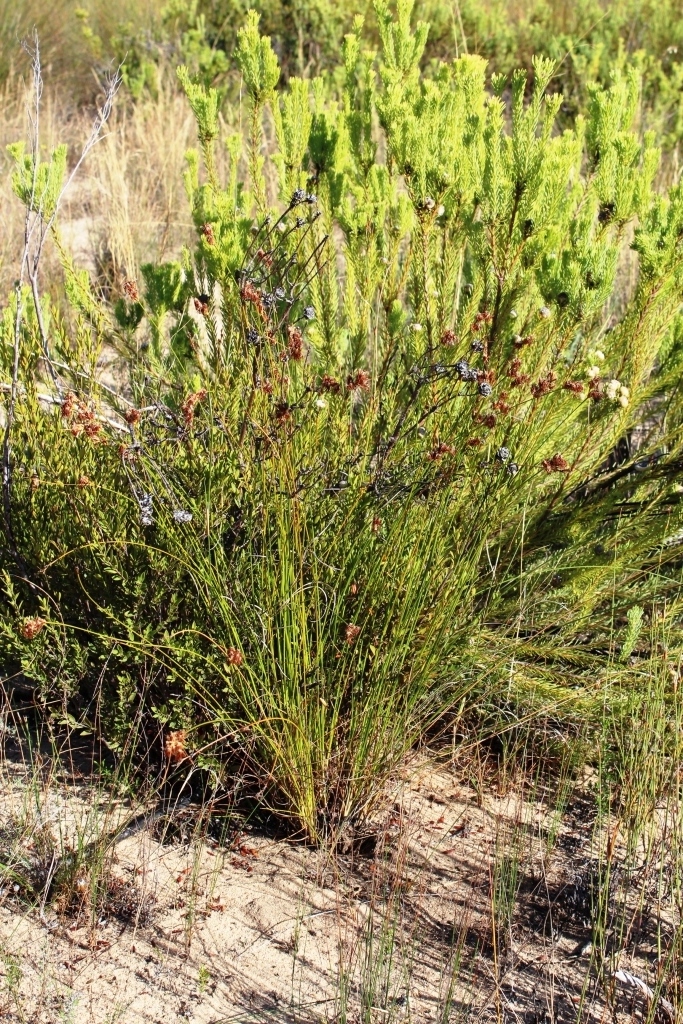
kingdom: Plantae
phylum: Tracheophyta
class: Liliopsida
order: Poales
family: Cyperaceae
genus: Schoenus
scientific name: Schoenus compar
